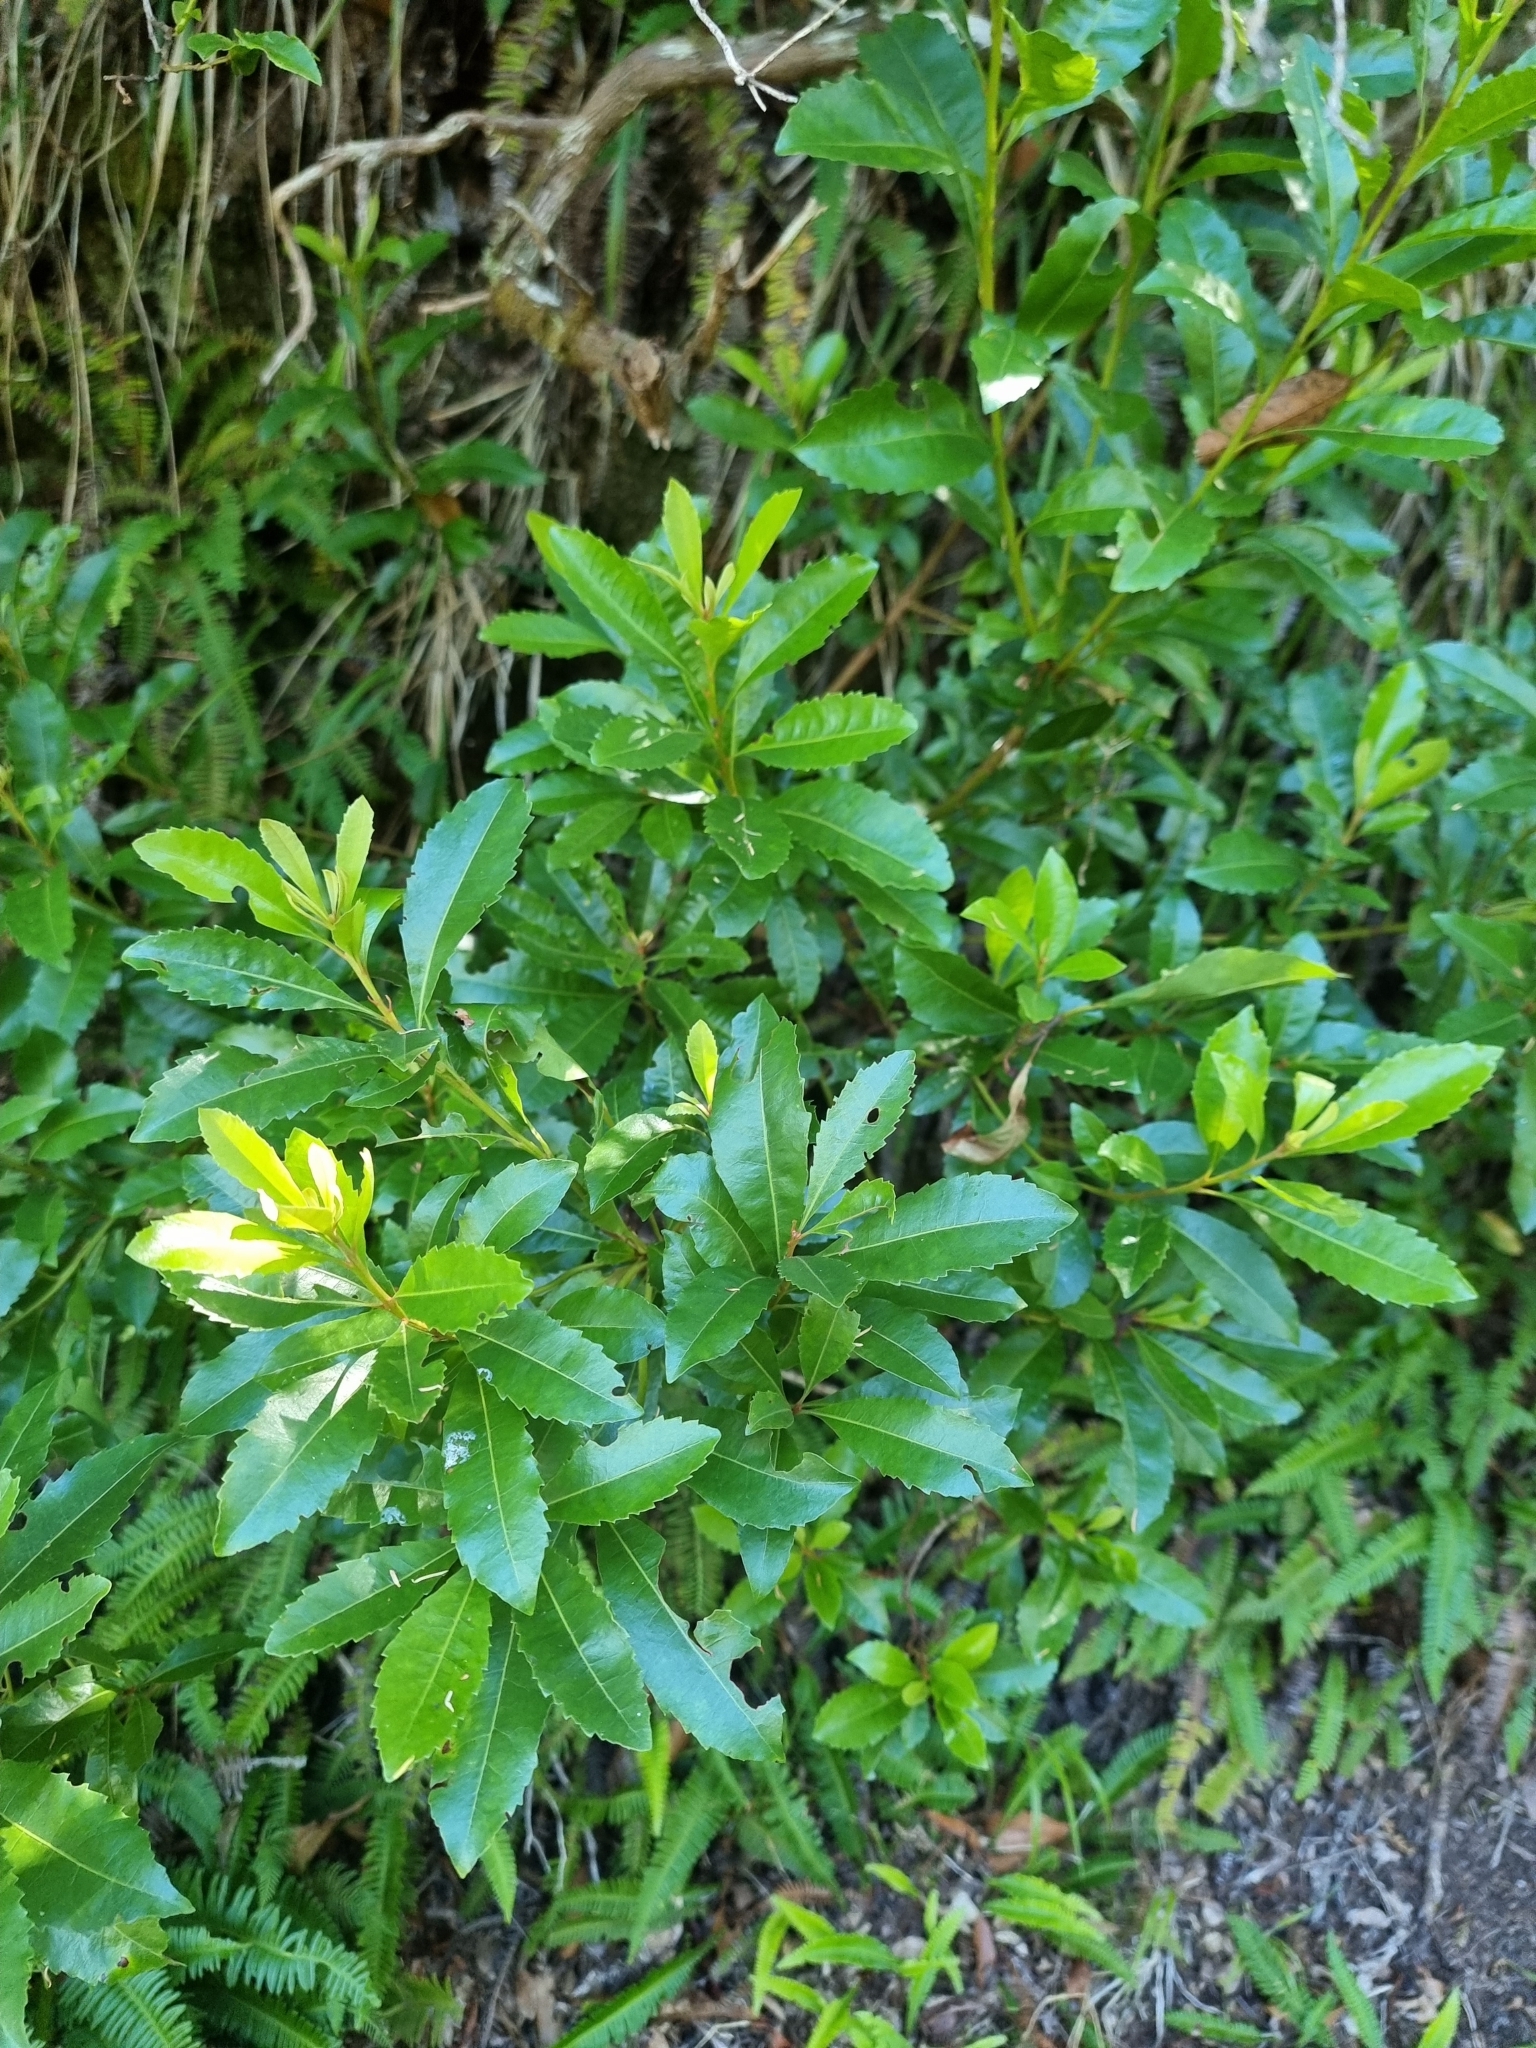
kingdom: Plantae
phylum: Tracheophyta
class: Magnoliopsida
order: Fagales
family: Myricaceae
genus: Morella
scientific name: Morella faya
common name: Firetree
